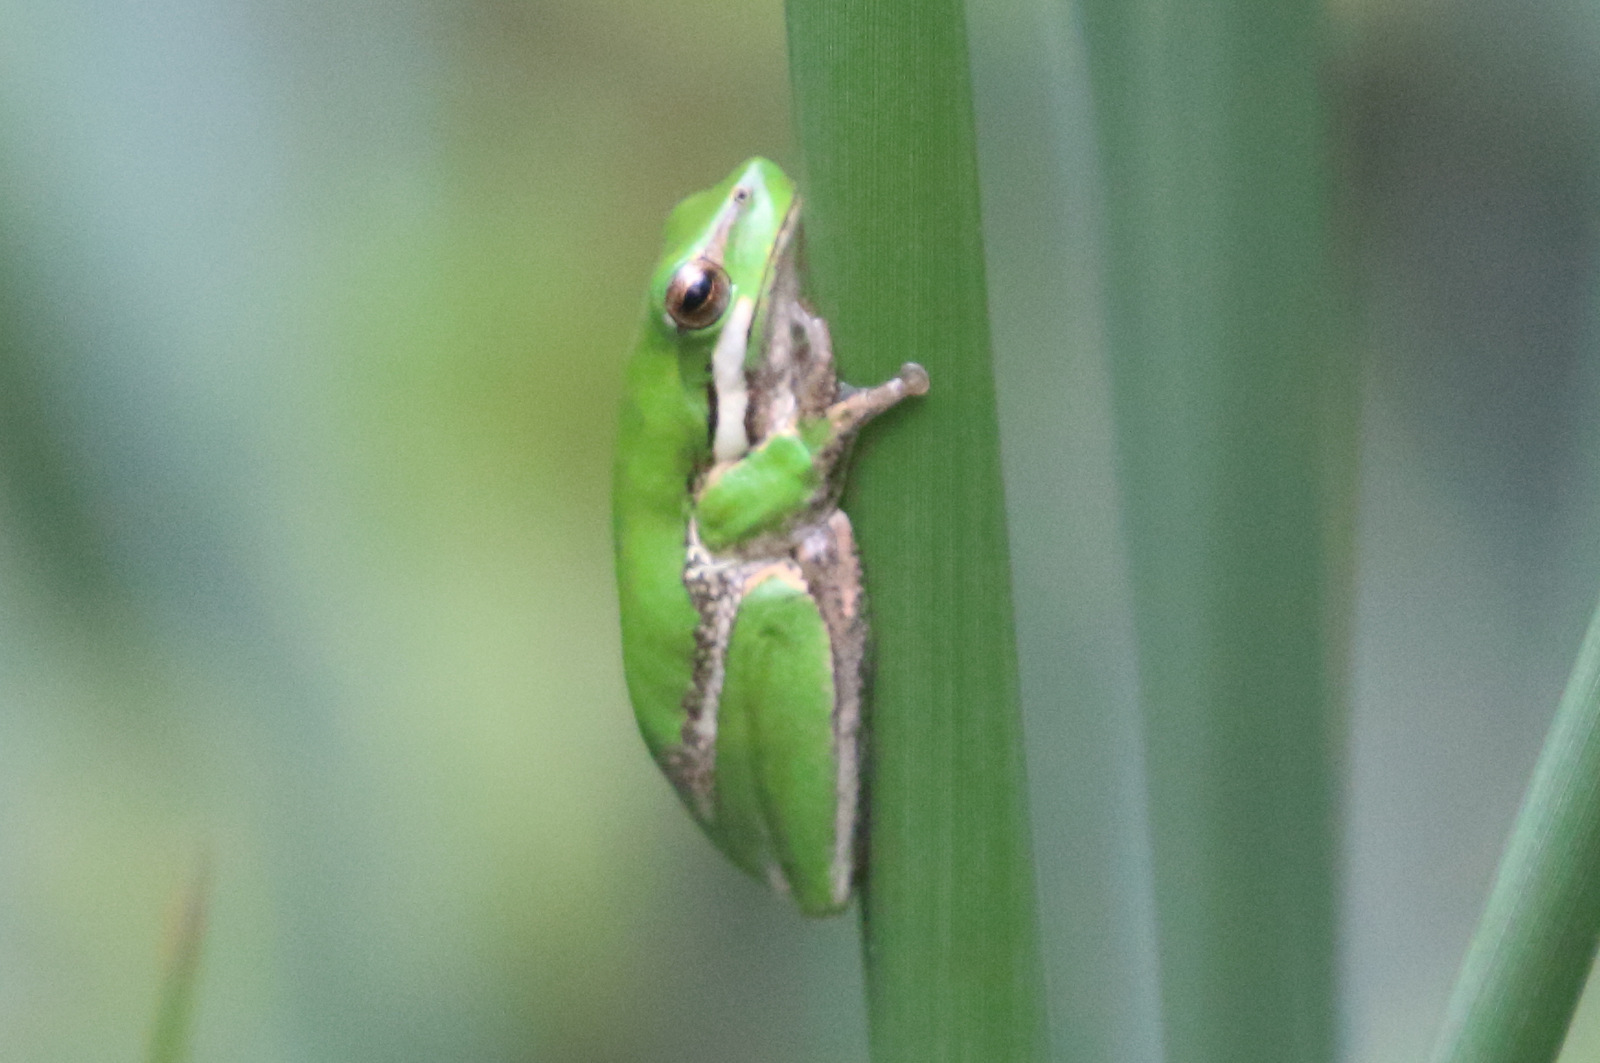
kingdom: Animalia
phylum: Chordata
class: Amphibia
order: Anura
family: Pelodryadidae
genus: Litoria
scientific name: Litoria fallax
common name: Eastern dwarf treefrog
